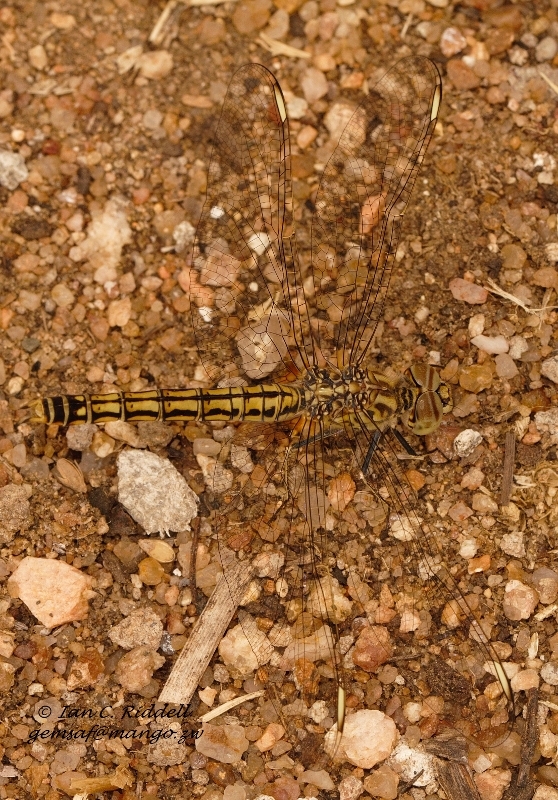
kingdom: Animalia
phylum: Arthropoda
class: Insecta
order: Odonata
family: Libellulidae
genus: Brachythemis
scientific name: Brachythemis leucosticta
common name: Banded groundling
